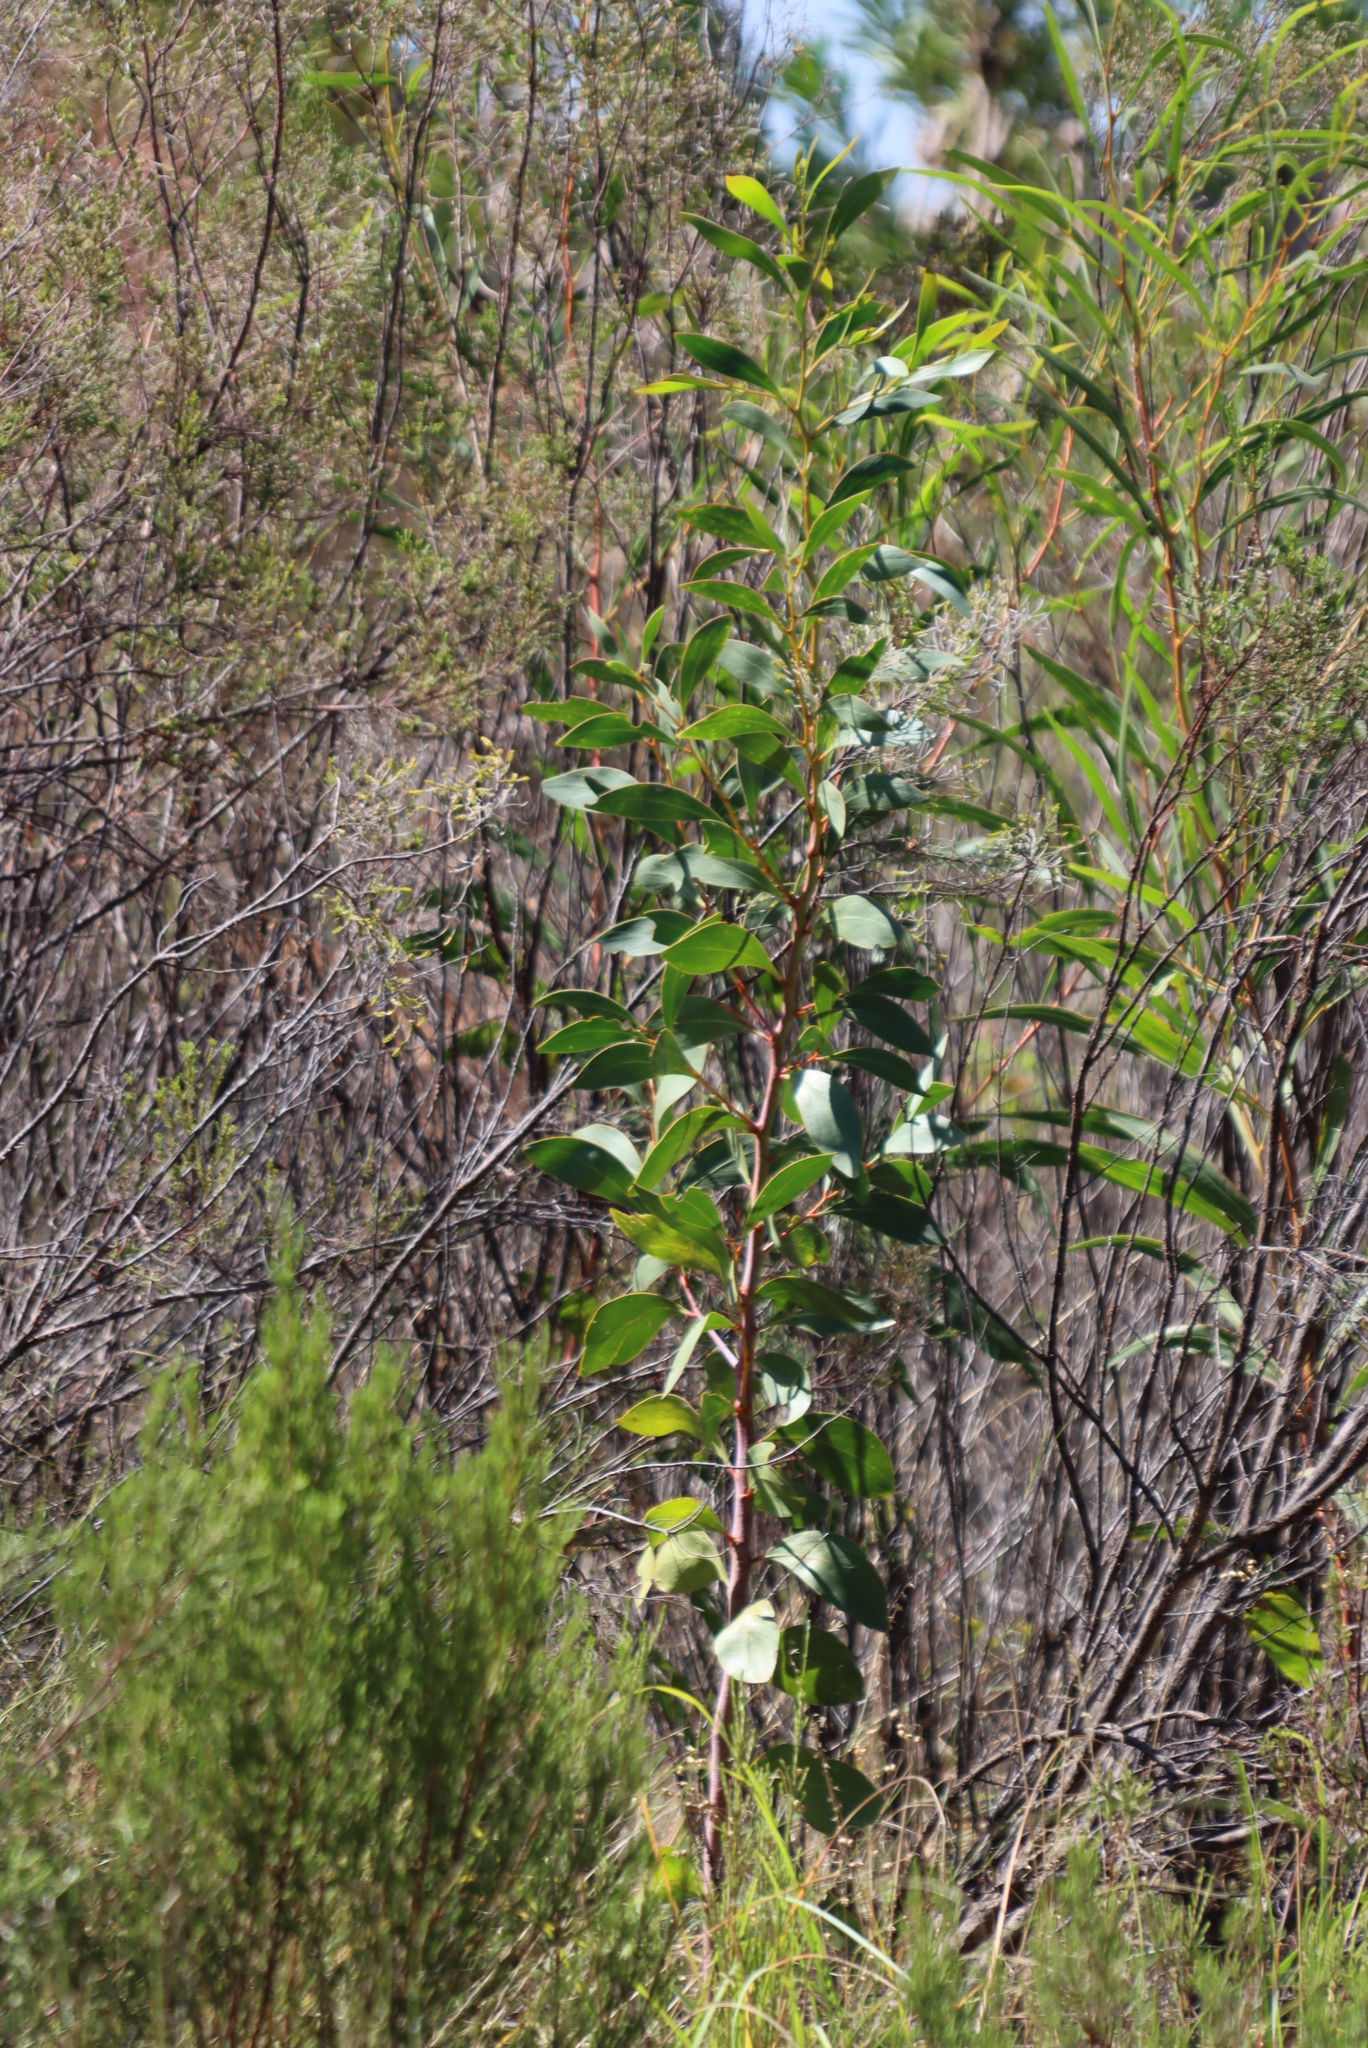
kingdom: Plantae
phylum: Tracheophyta
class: Magnoliopsida
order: Fabales
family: Fabaceae
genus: Acacia
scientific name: Acacia pycnantha
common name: Golden wattle
